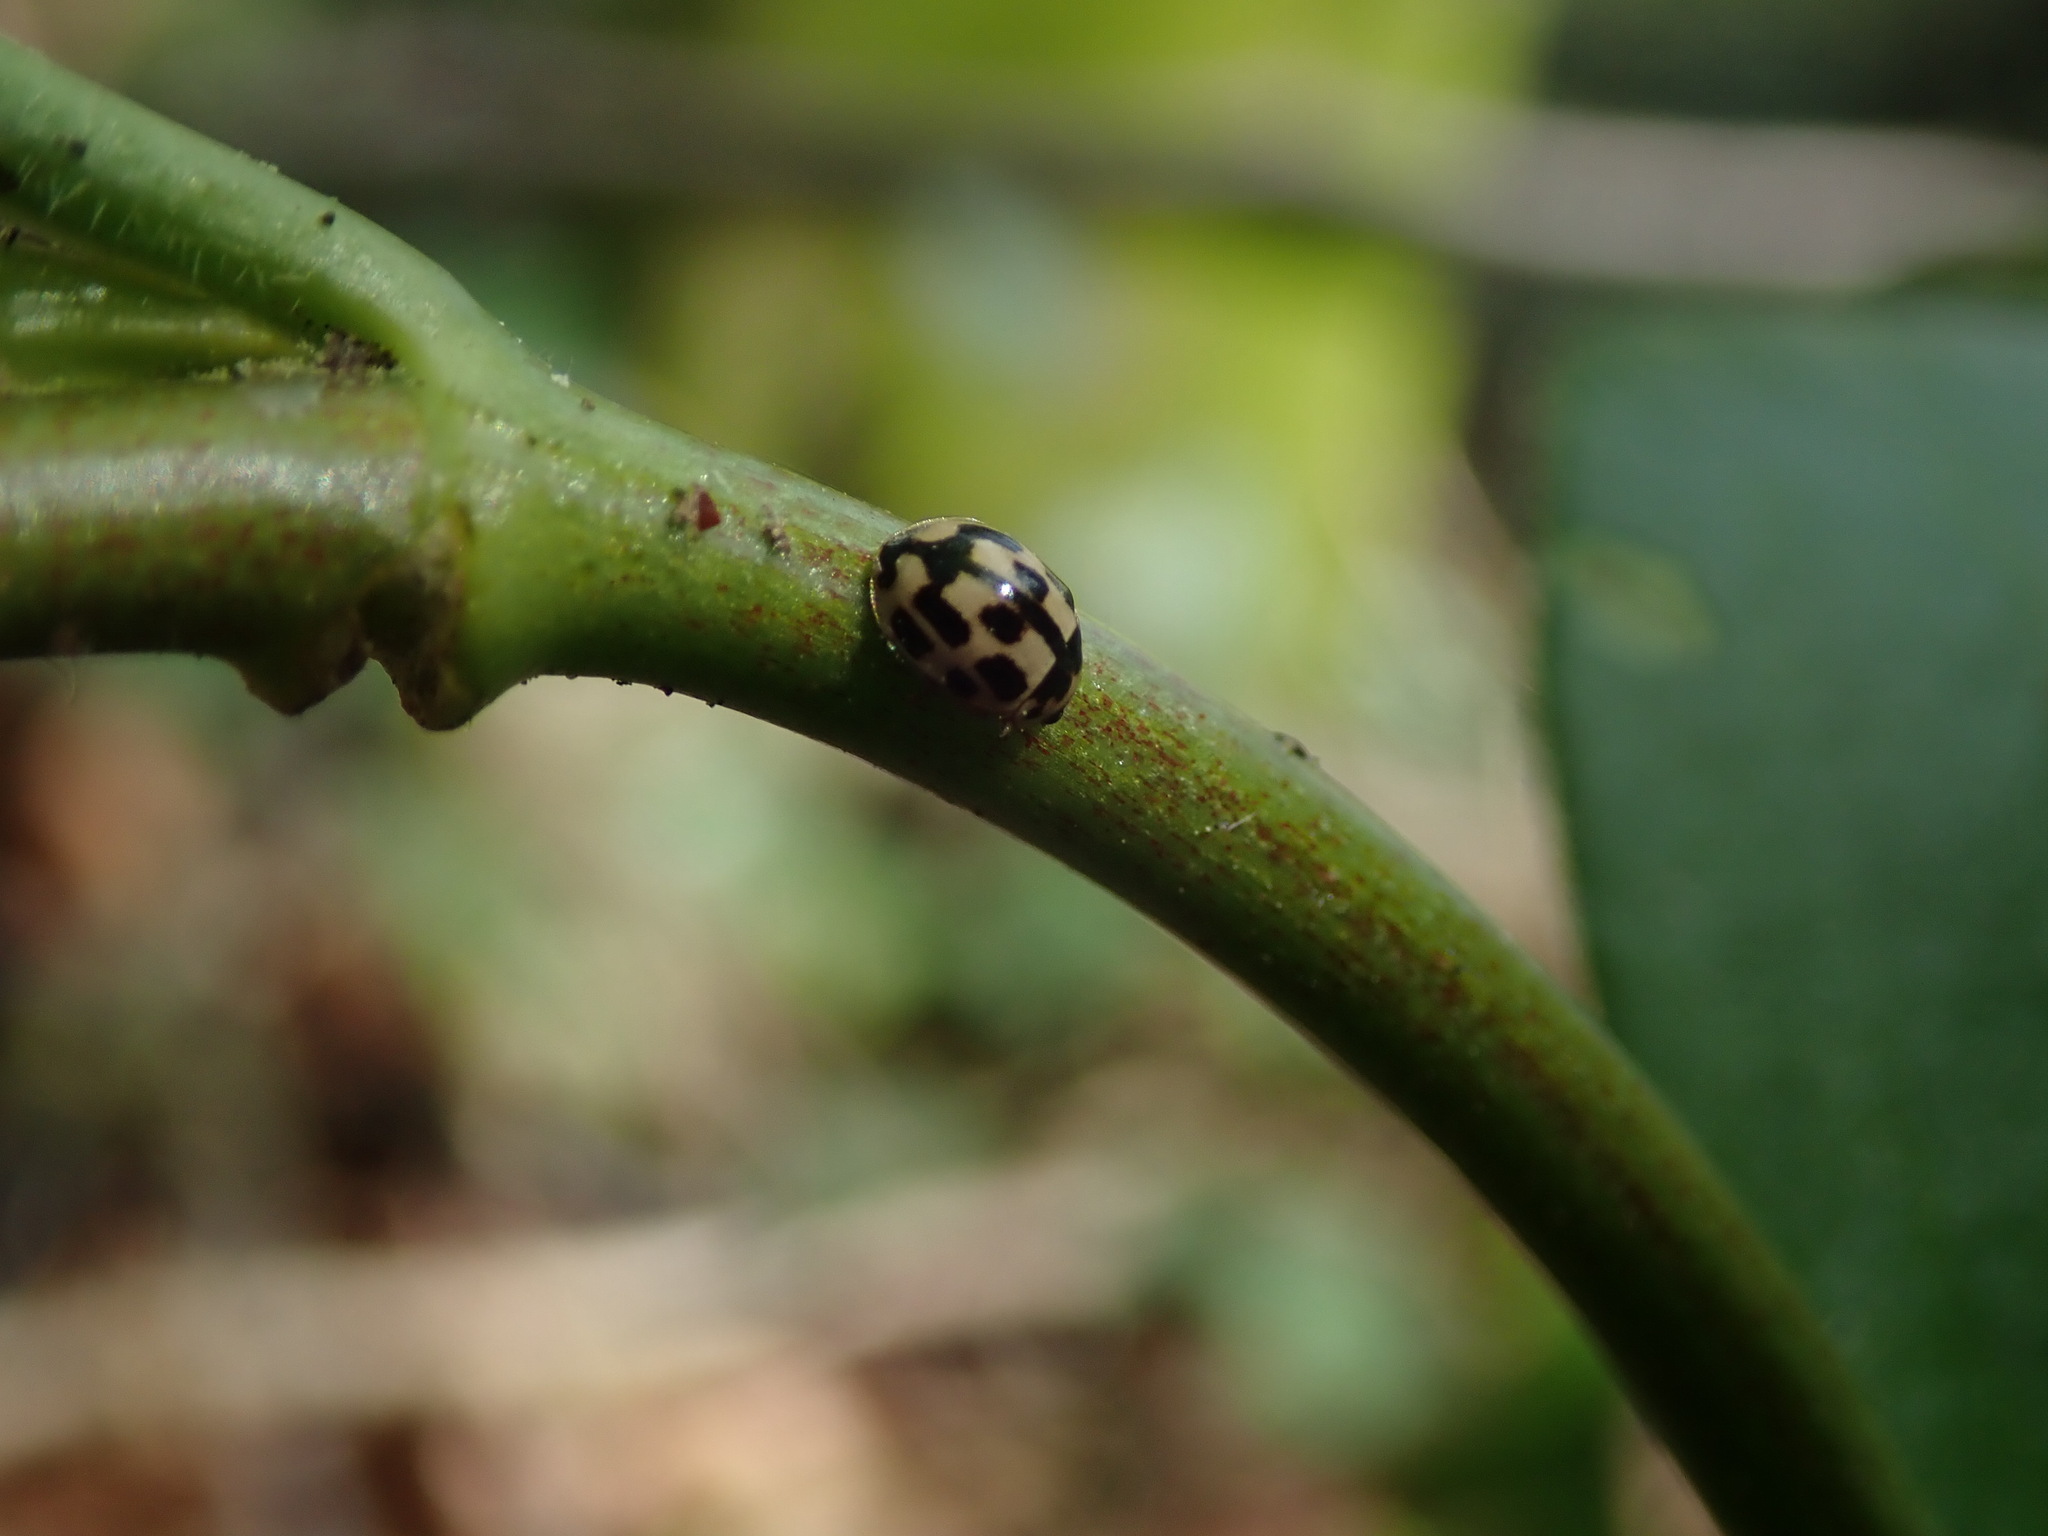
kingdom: Animalia
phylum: Arthropoda
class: Insecta
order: Coleoptera
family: Coccinellidae
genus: Propylaea
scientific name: Propylaea quatuordecimpunctata
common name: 14-spotted ladybird beetle
